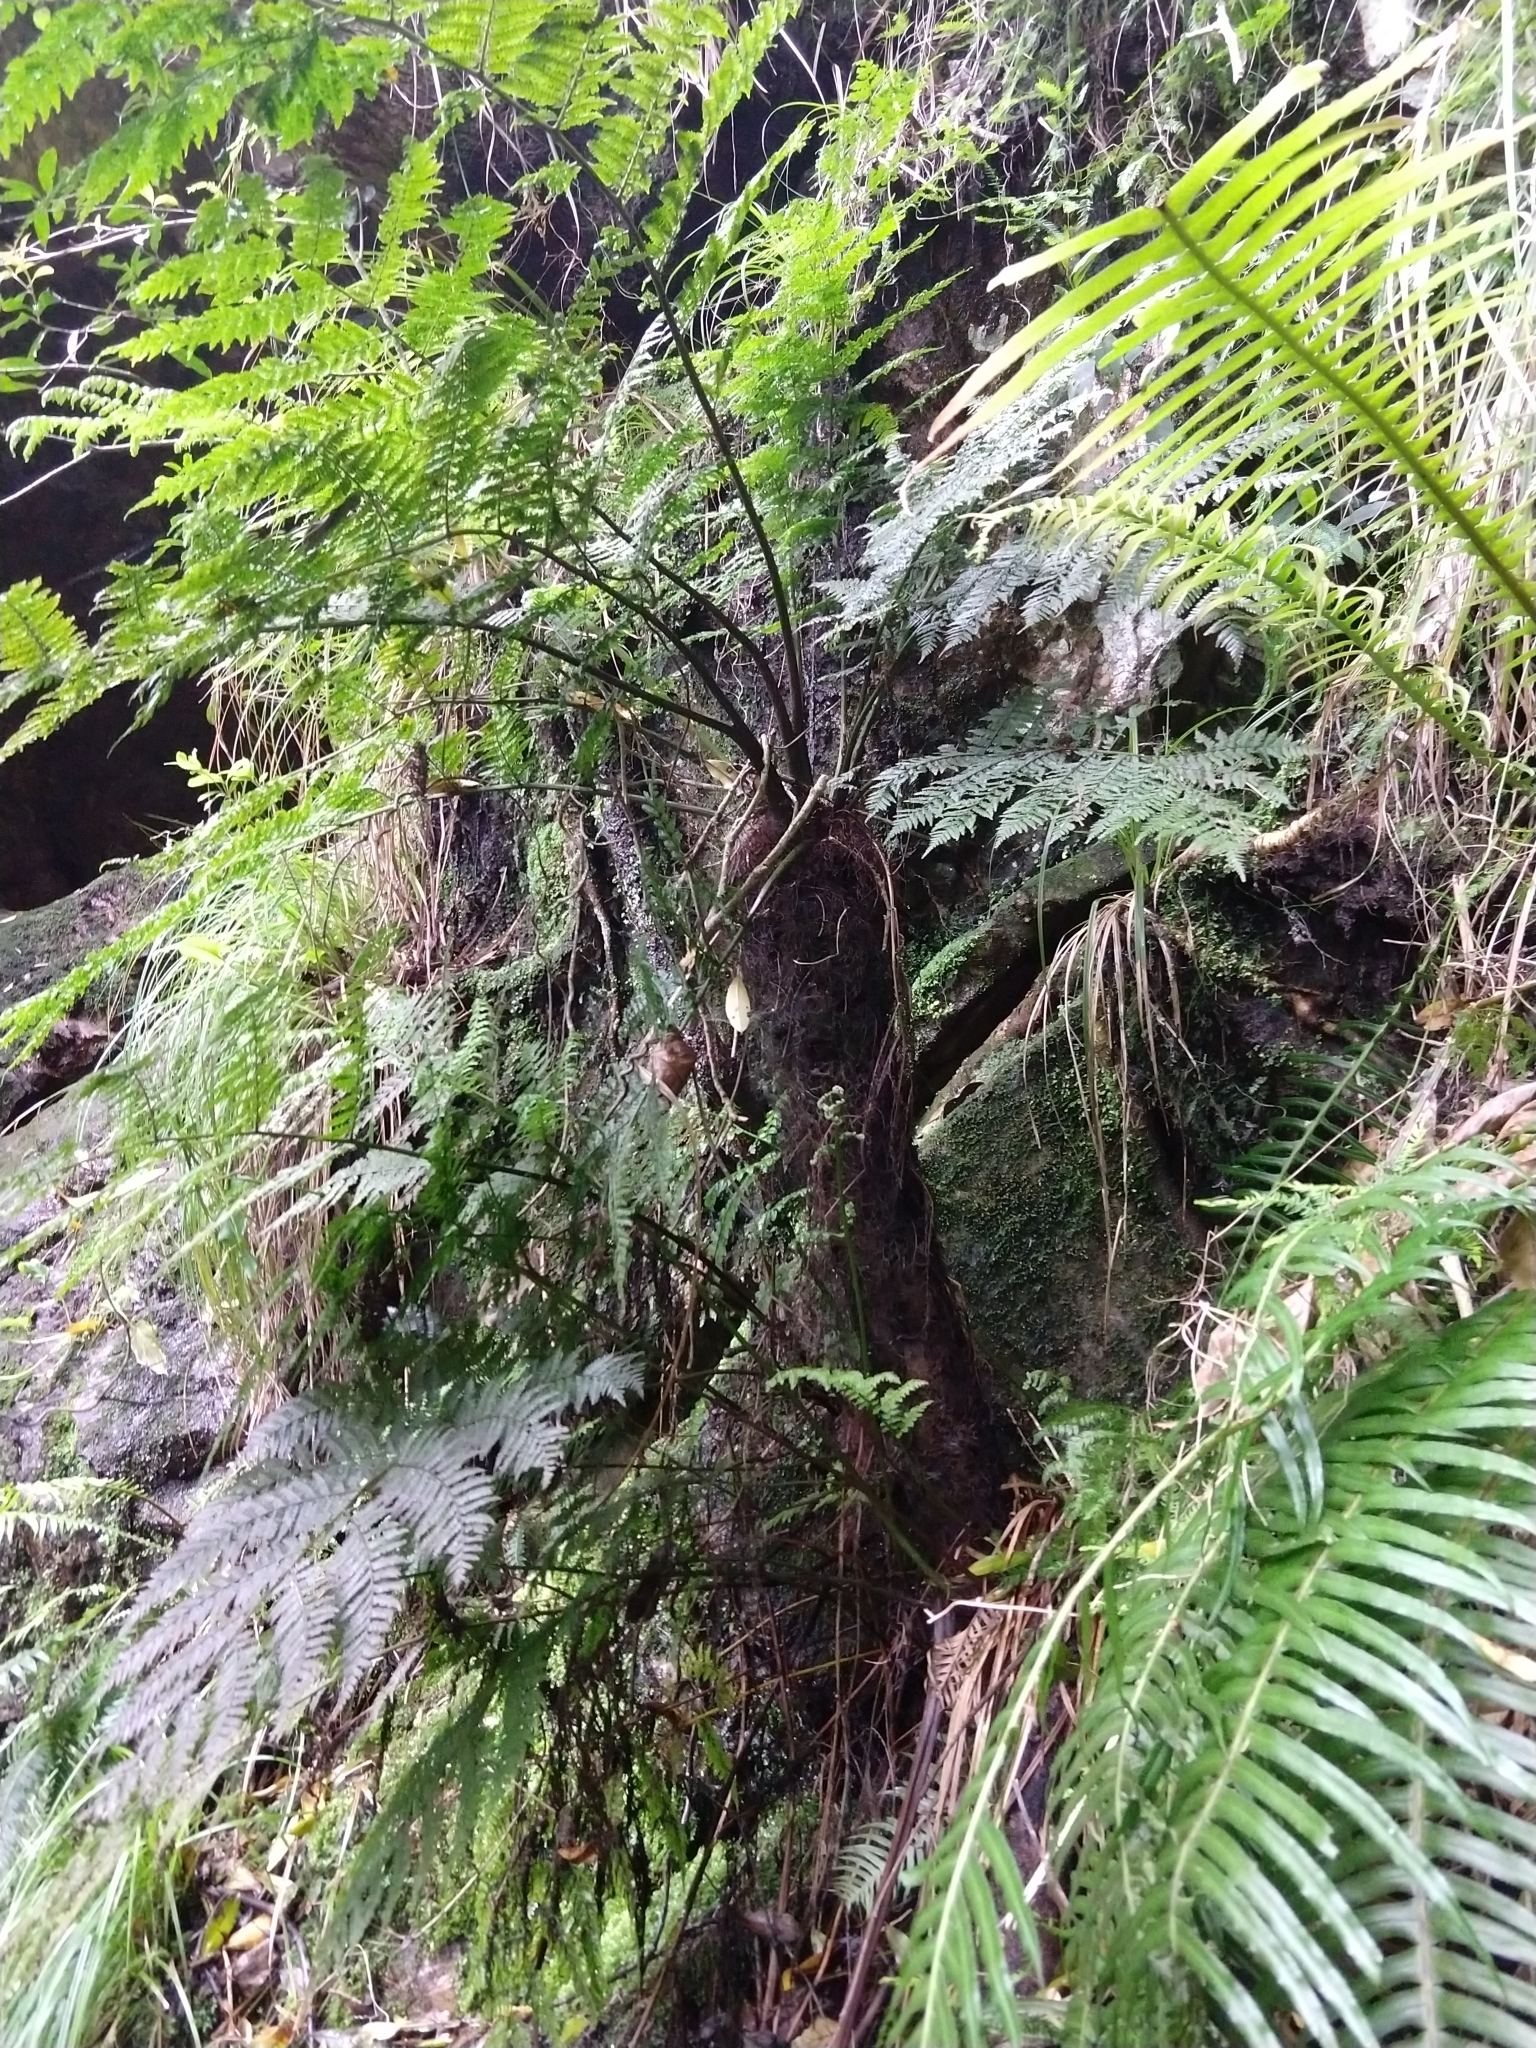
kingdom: Plantae
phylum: Tracheophyta
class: Polypodiopsida
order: Cyatheales
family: Cyatheaceae
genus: Gymnosphaera
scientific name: Gymnosphaera capensis
